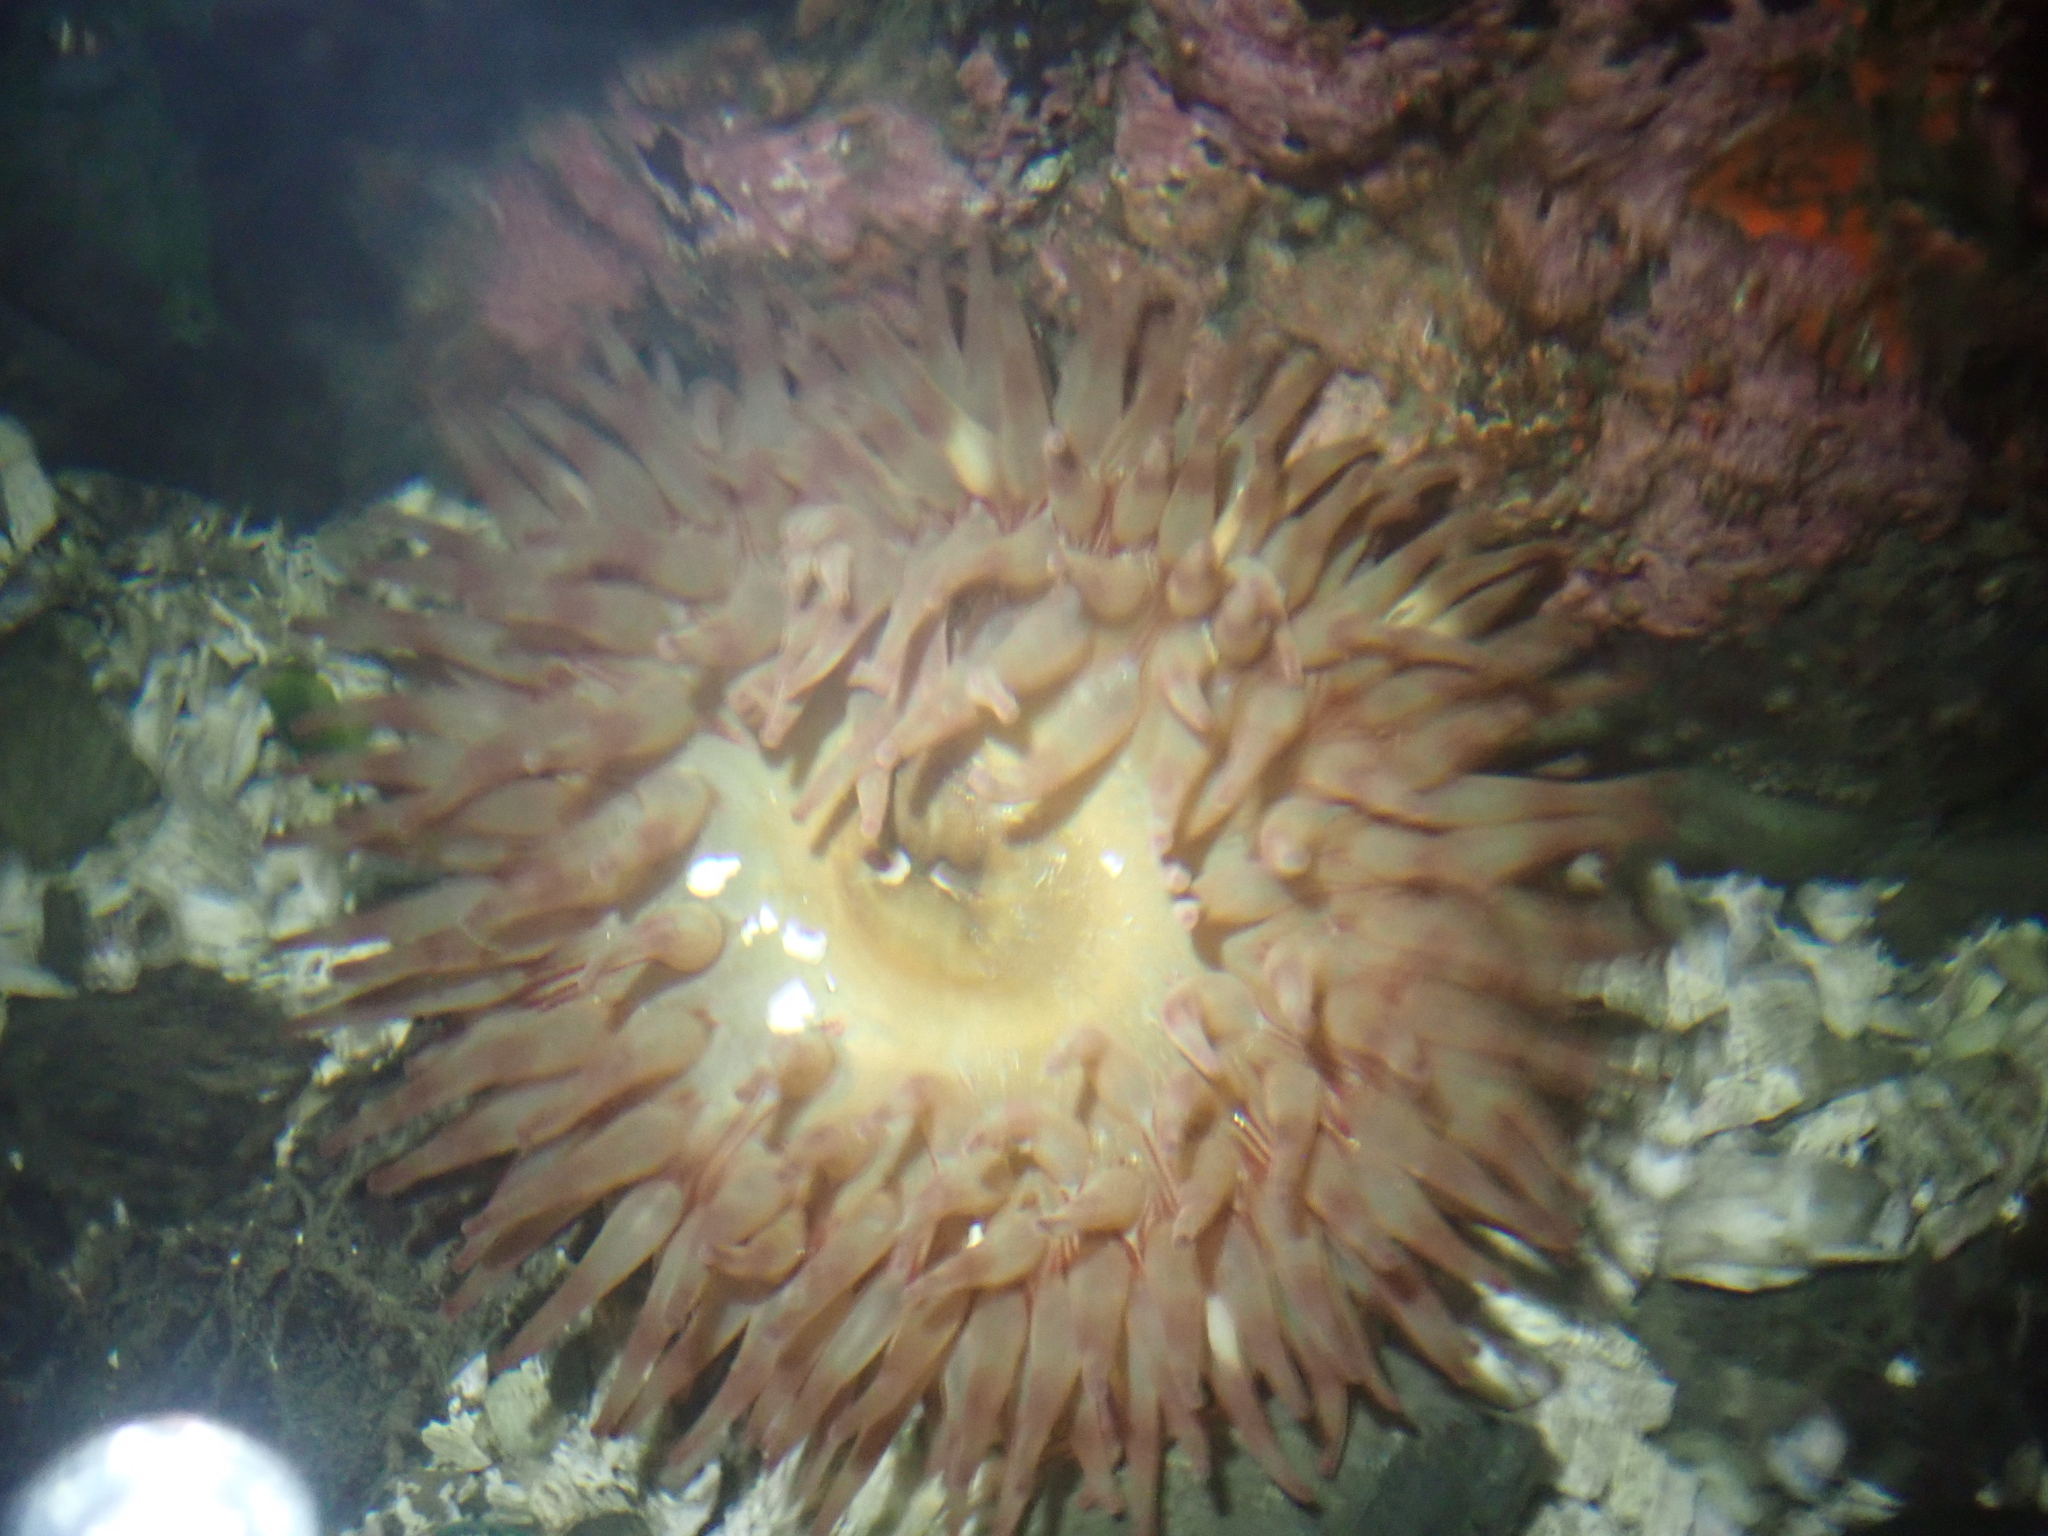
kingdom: Animalia
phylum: Cnidaria
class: Anthozoa
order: Actiniaria
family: Actiniidae
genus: Urticina
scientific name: Urticina grebelnyi
